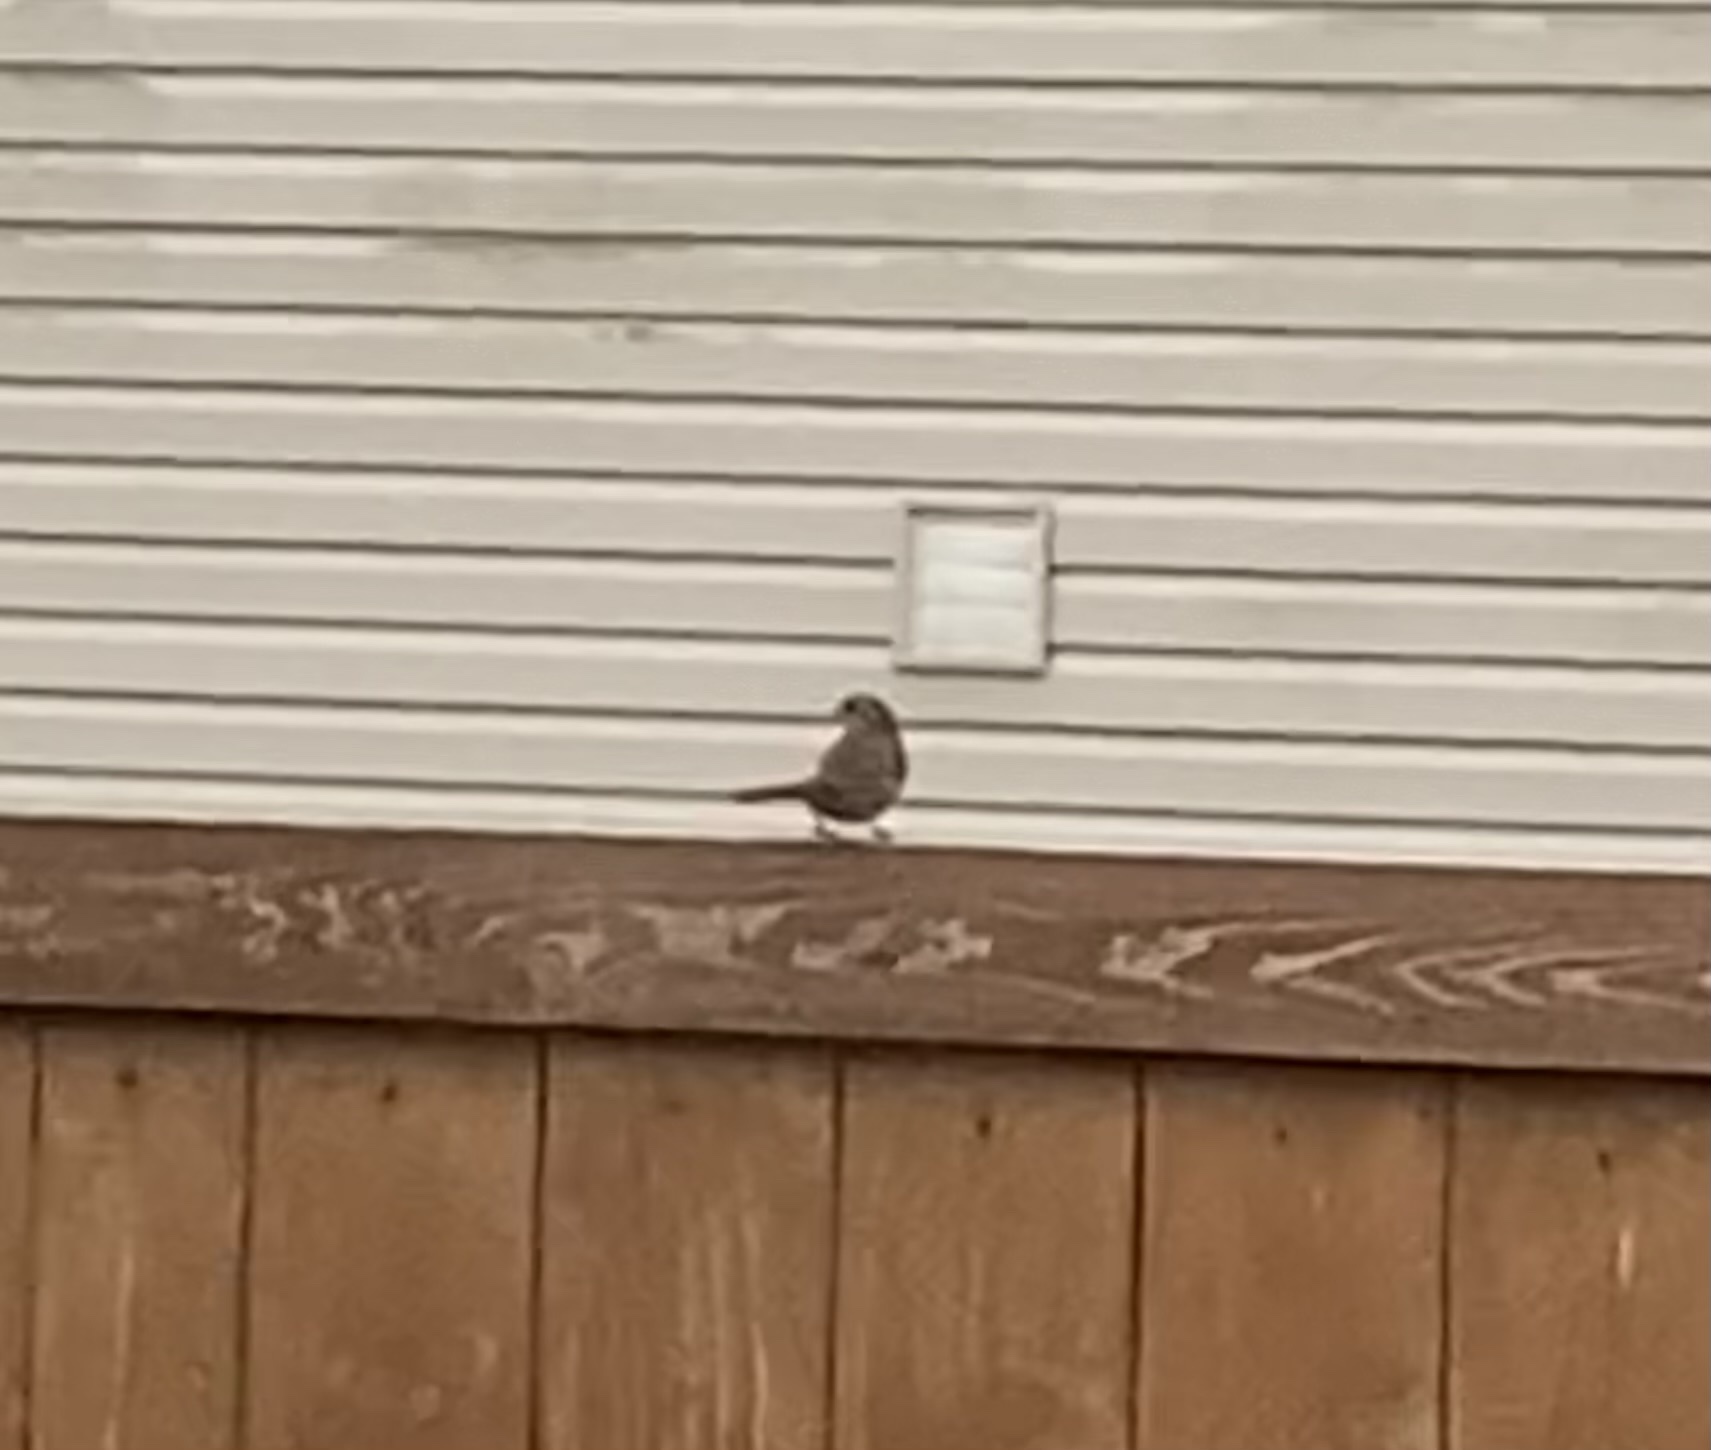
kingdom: Animalia
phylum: Chordata
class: Aves
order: Passeriformes
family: Passerellidae
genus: Melospiza
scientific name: Melospiza melodia
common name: Song sparrow
